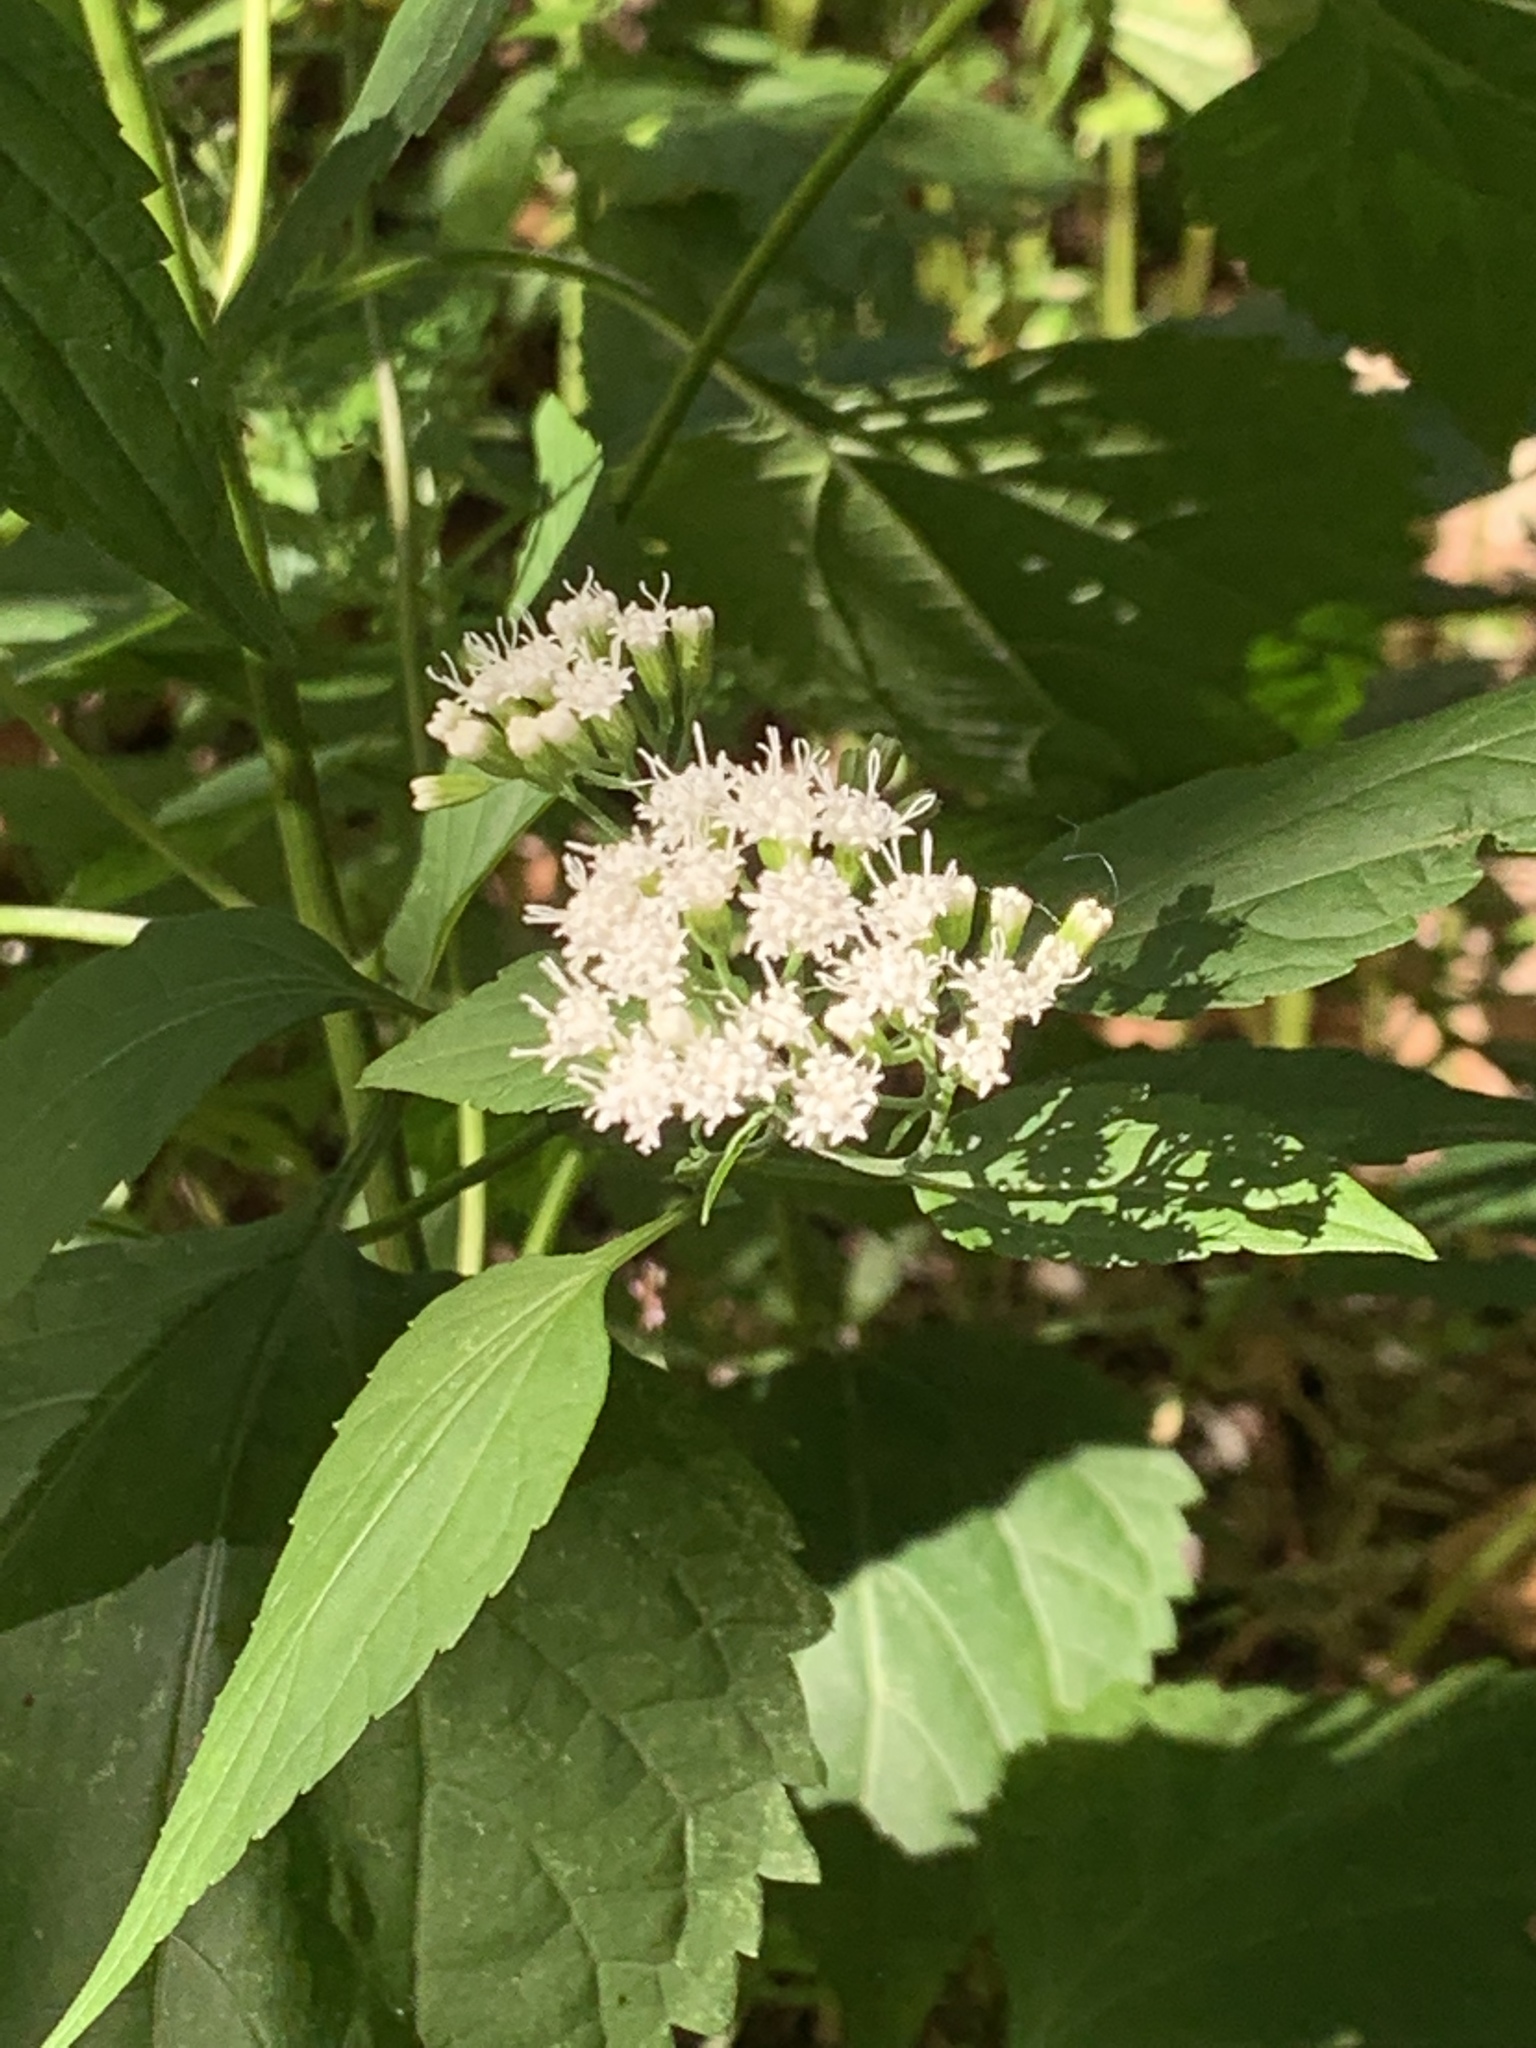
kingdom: Plantae
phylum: Tracheophyta
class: Magnoliopsida
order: Asterales
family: Asteraceae
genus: Ageratina
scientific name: Ageratina altissima
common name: White snakeroot
